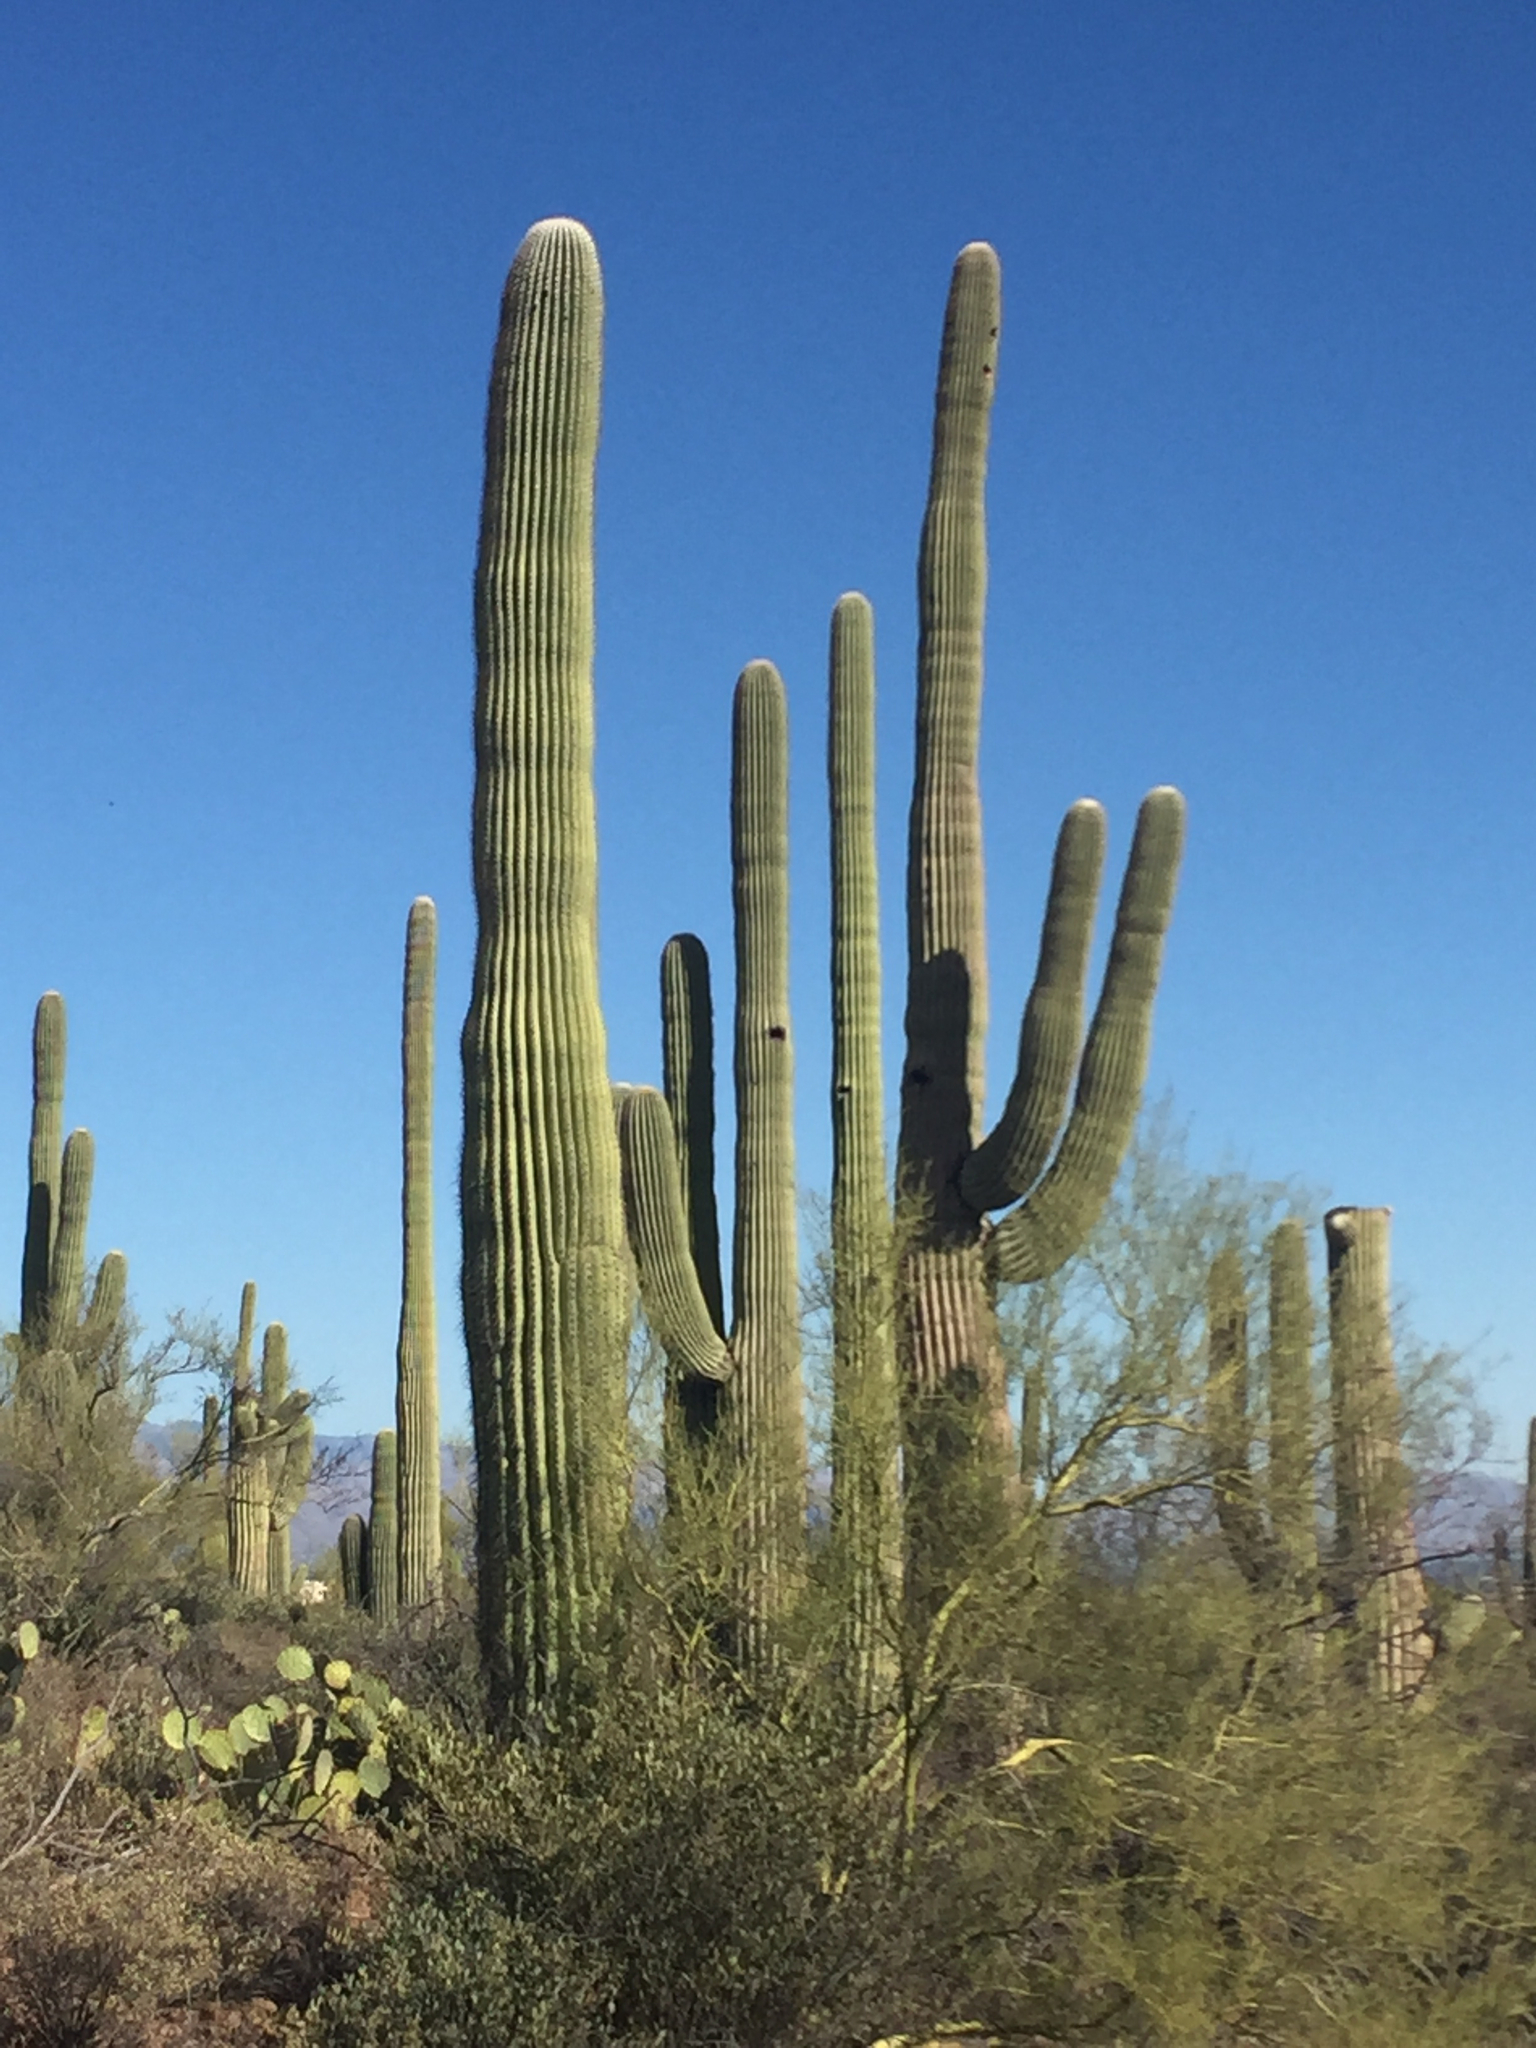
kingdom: Plantae
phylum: Tracheophyta
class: Magnoliopsida
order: Caryophyllales
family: Cactaceae
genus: Carnegiea
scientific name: Carnegiea gigantea
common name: Saguaro
